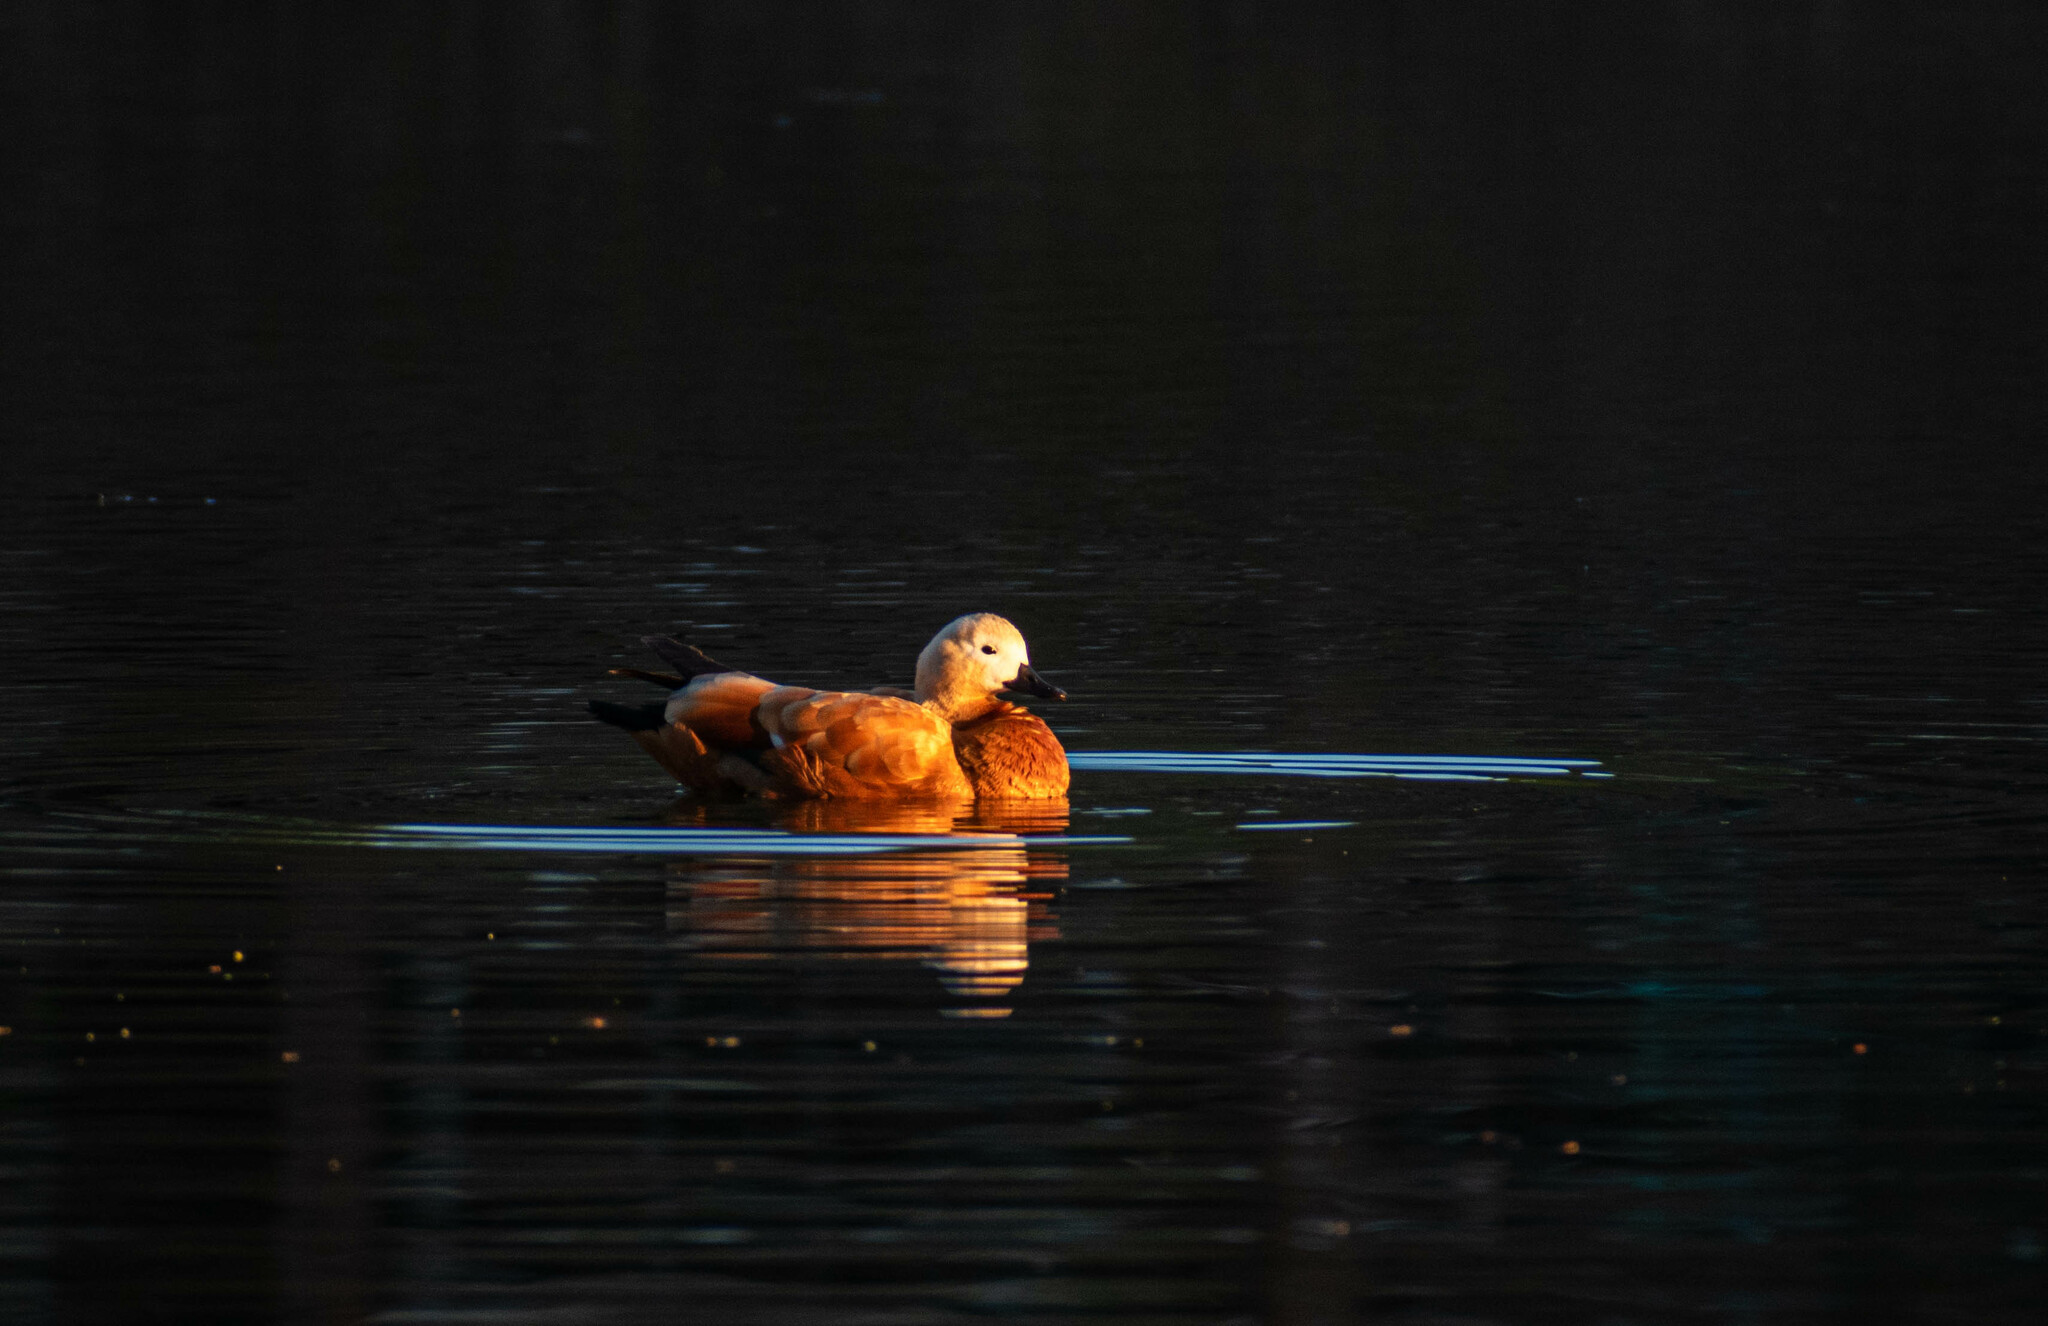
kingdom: Animalia
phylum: Chordata
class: Aves
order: Anseriformes
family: Anatidae
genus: Tadorna
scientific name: Tadorna ferruginea
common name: Ruddy shelduck
